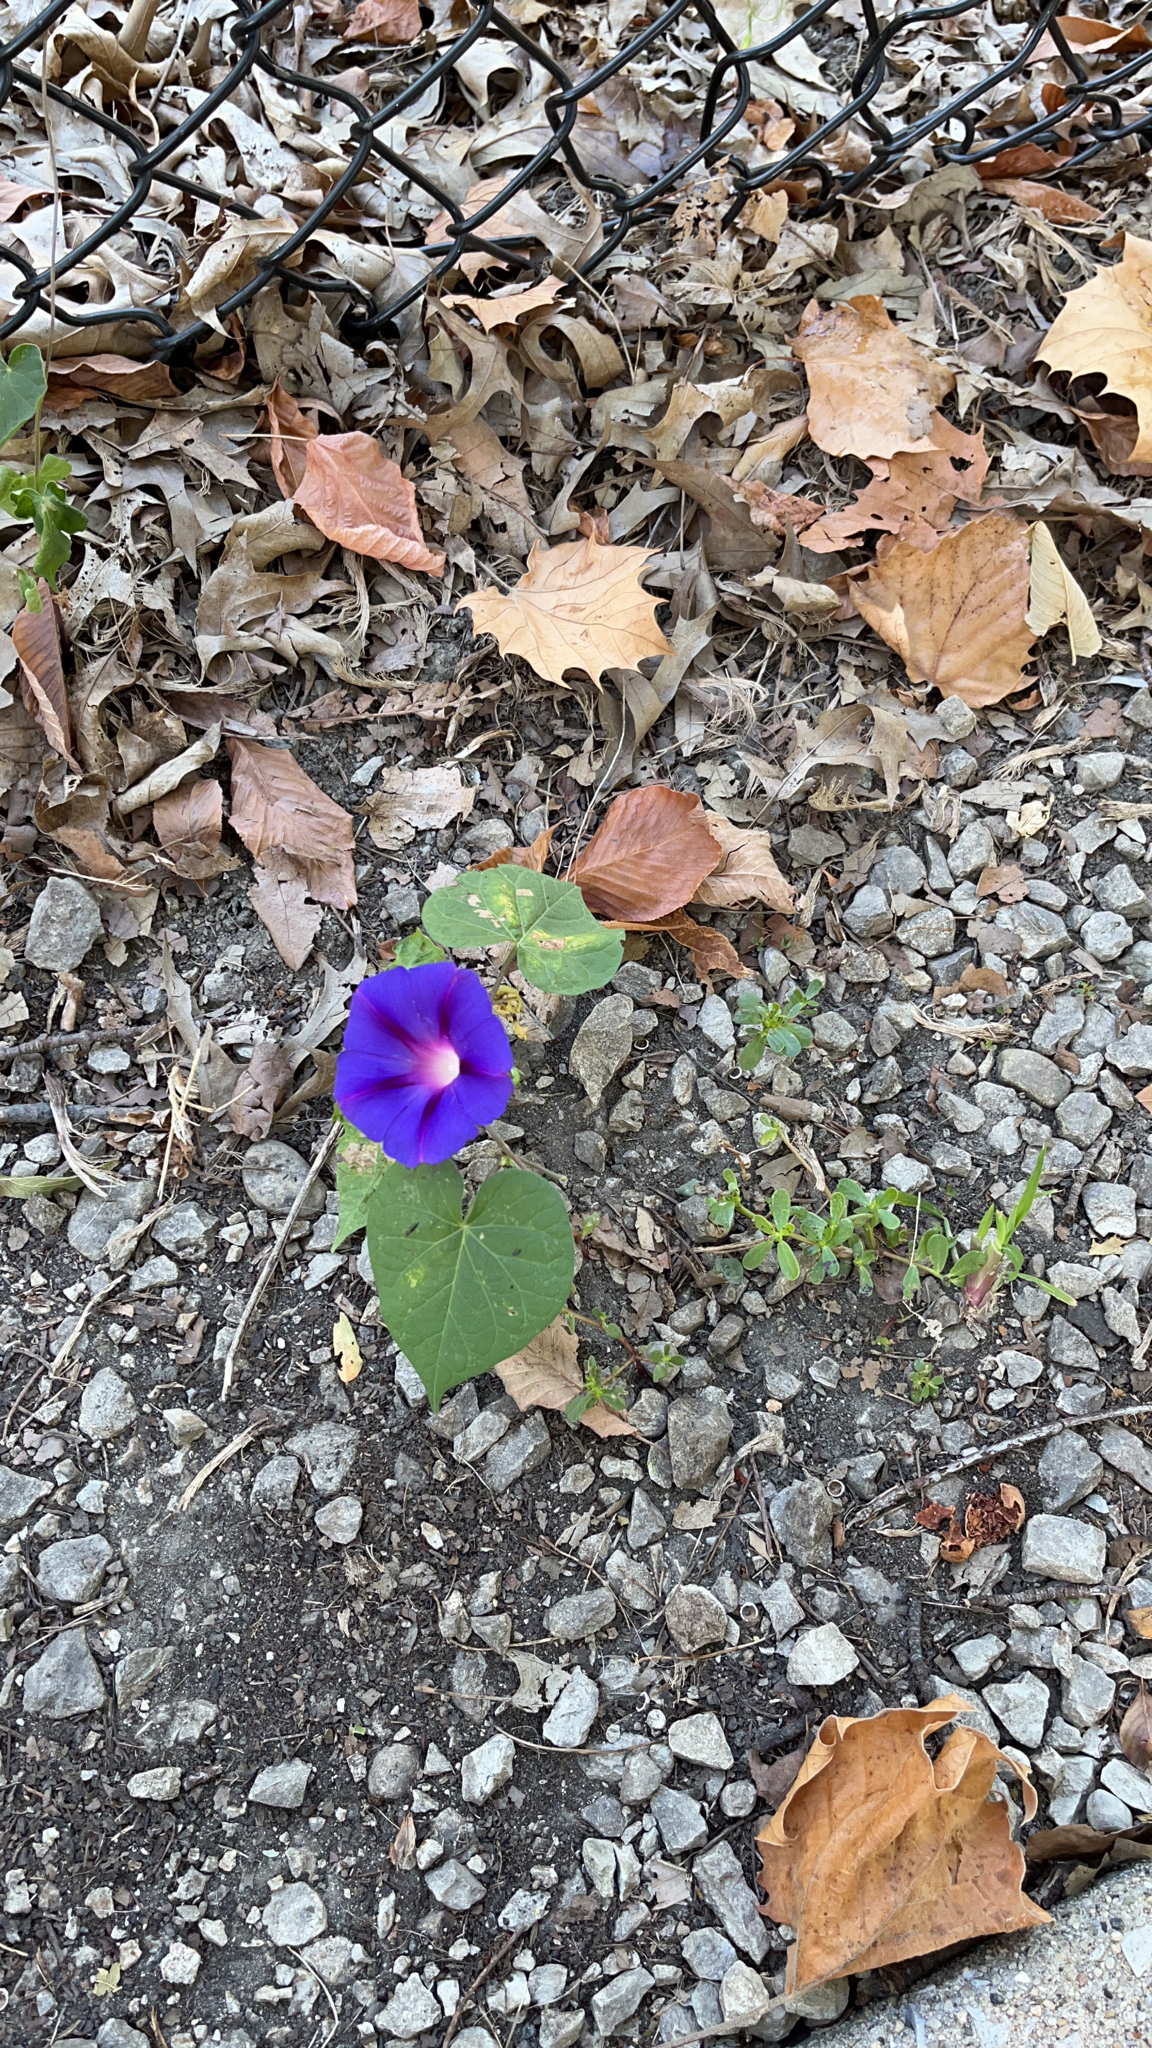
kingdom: Plantae
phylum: Tracheophyta
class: Magnoliopsida
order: Solanales
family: Convolvulaceae
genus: Ipomoea
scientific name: Ipomoea purpurea
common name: Common morning-glory
